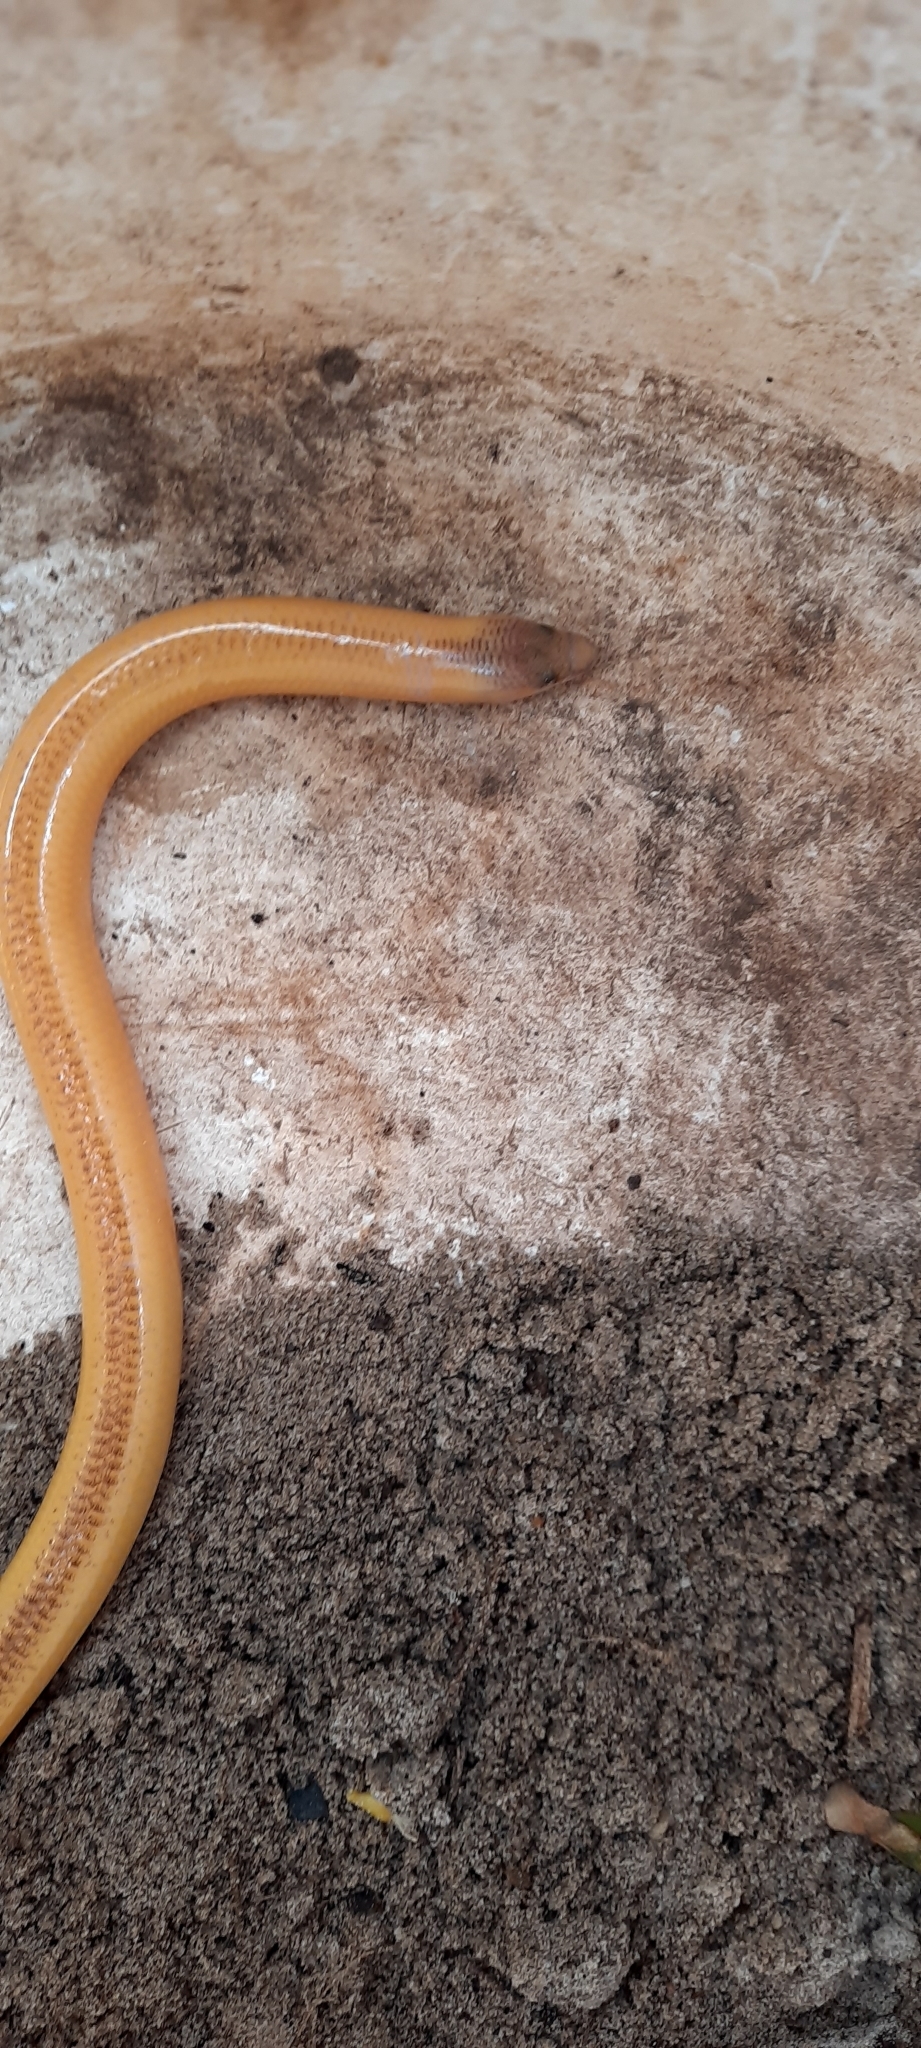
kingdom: Animalia
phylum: Chordata
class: Squamata
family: Scincidae
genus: Acontias
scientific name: Acontias meleagris
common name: Cape legless skink
